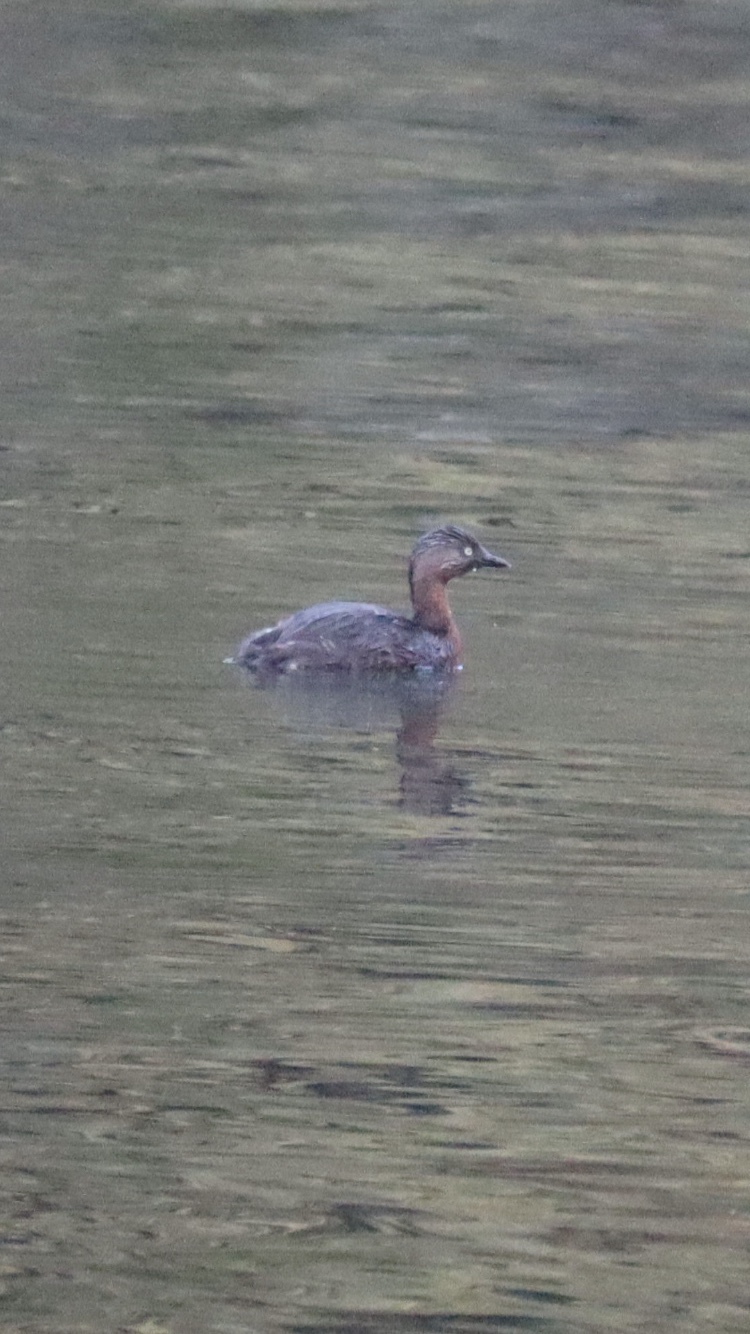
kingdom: Animalia
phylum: Chordata
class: Aves
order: Podicipediformes
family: Podicipedidae
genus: Poliocephalus
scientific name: Poliocephalus rufopectus
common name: New zealand grebe
